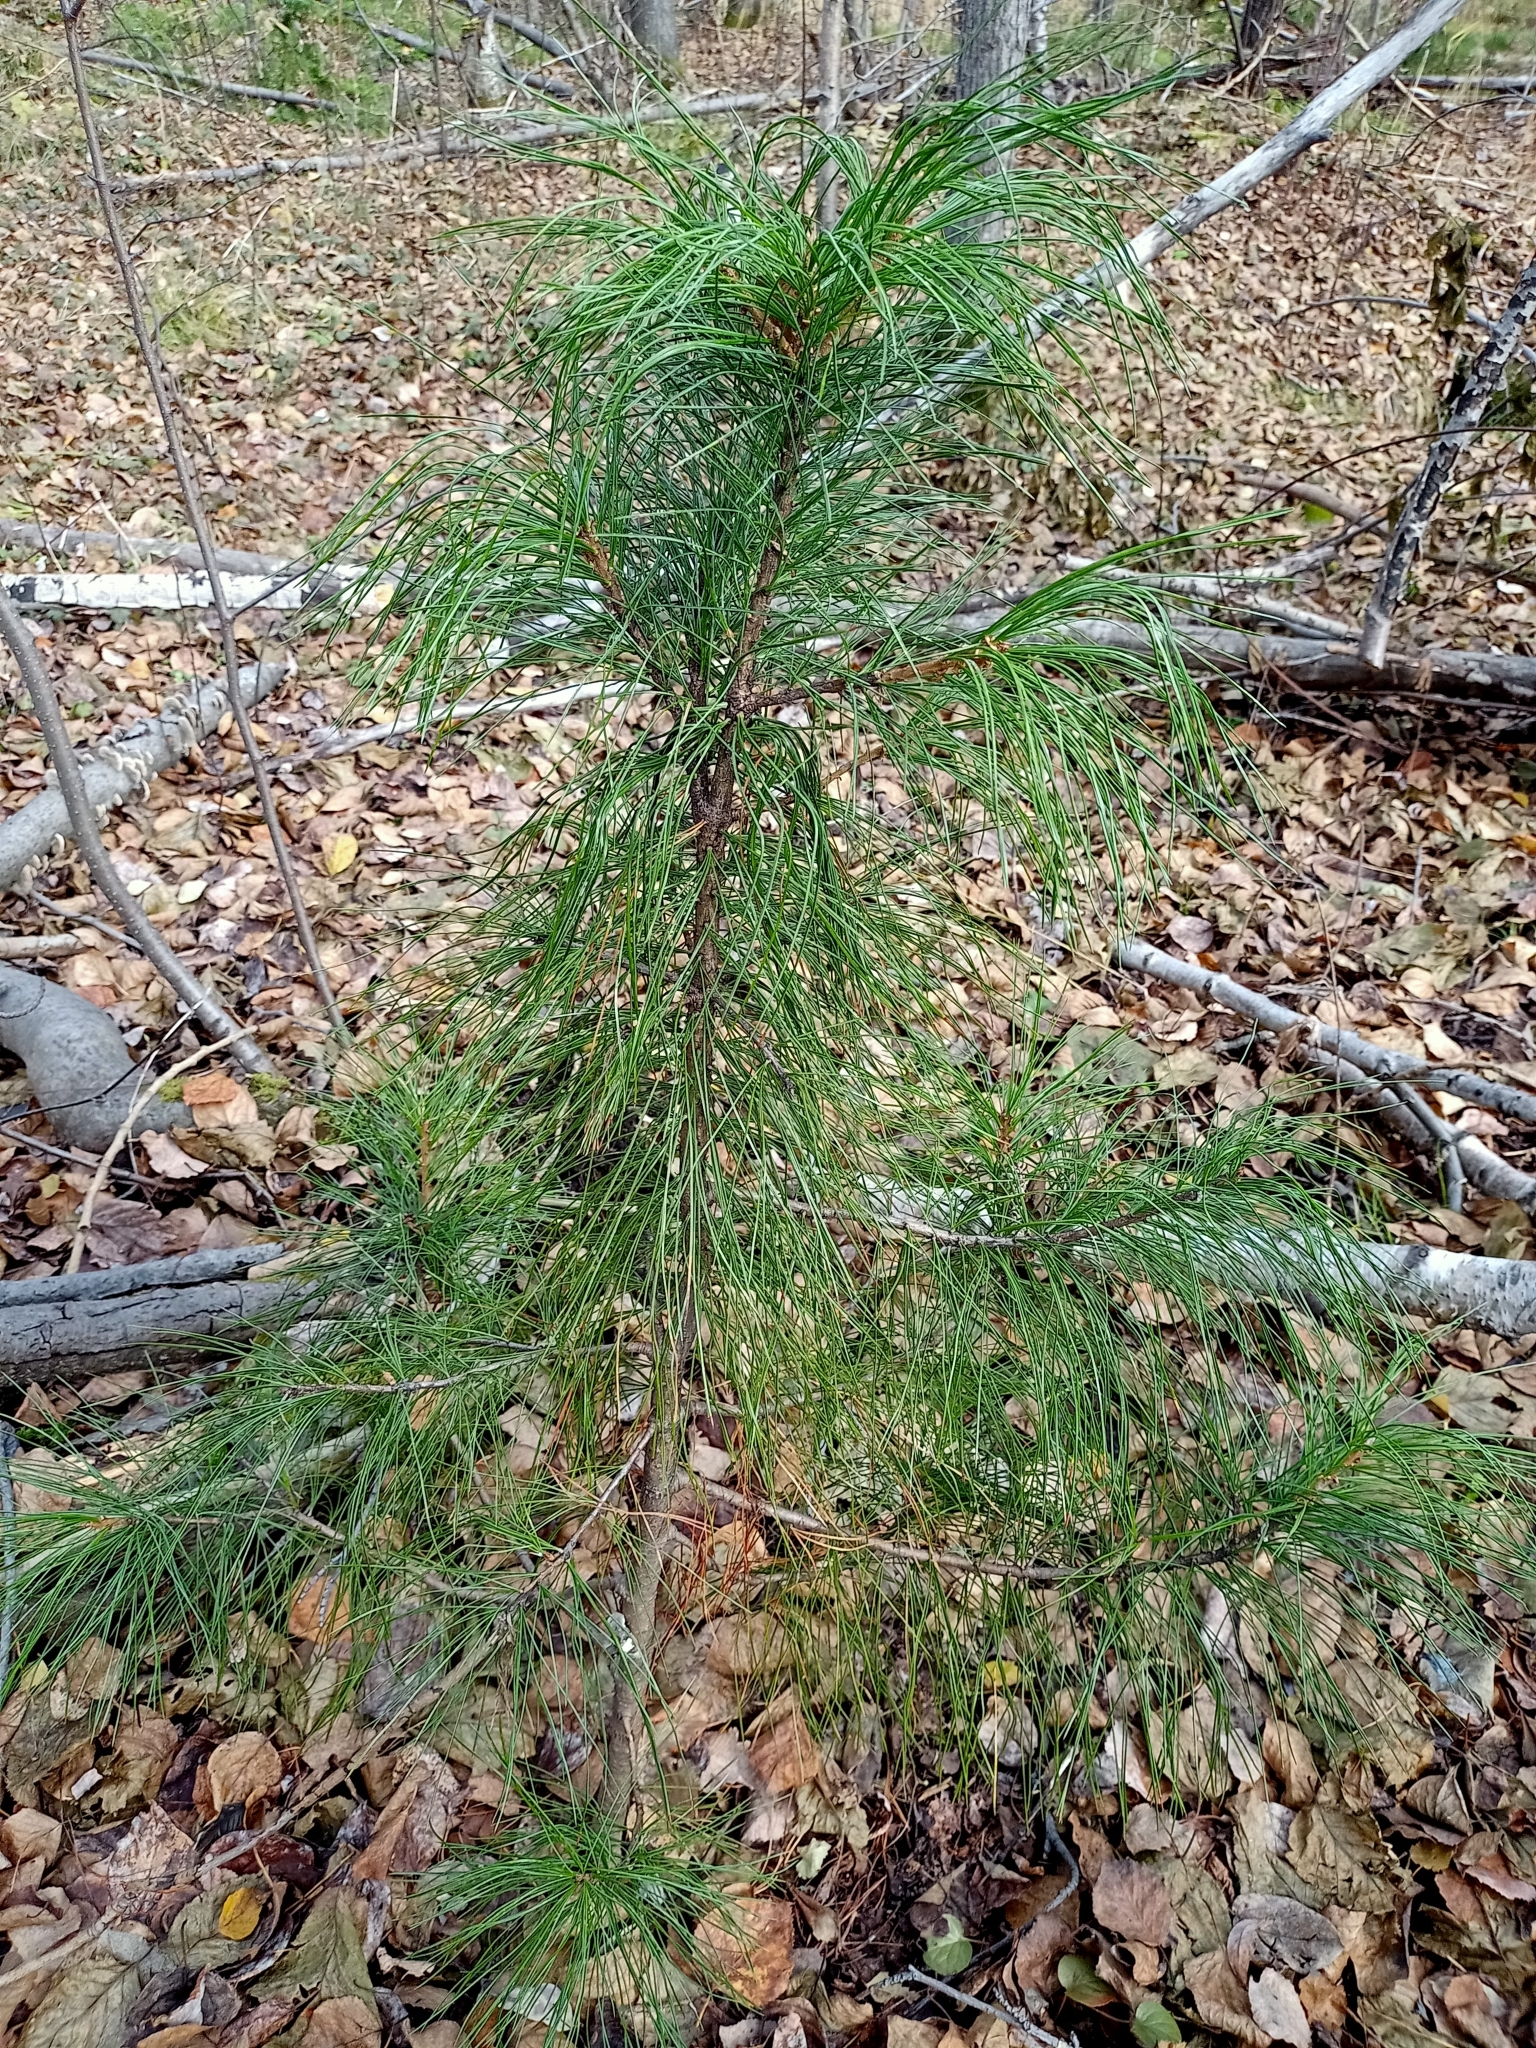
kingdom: Plantae
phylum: Tracheophyta
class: Pinopsida
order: Pinales
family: Pinaceae
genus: Pinus
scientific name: Pinus sibirica
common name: Siberian pine
